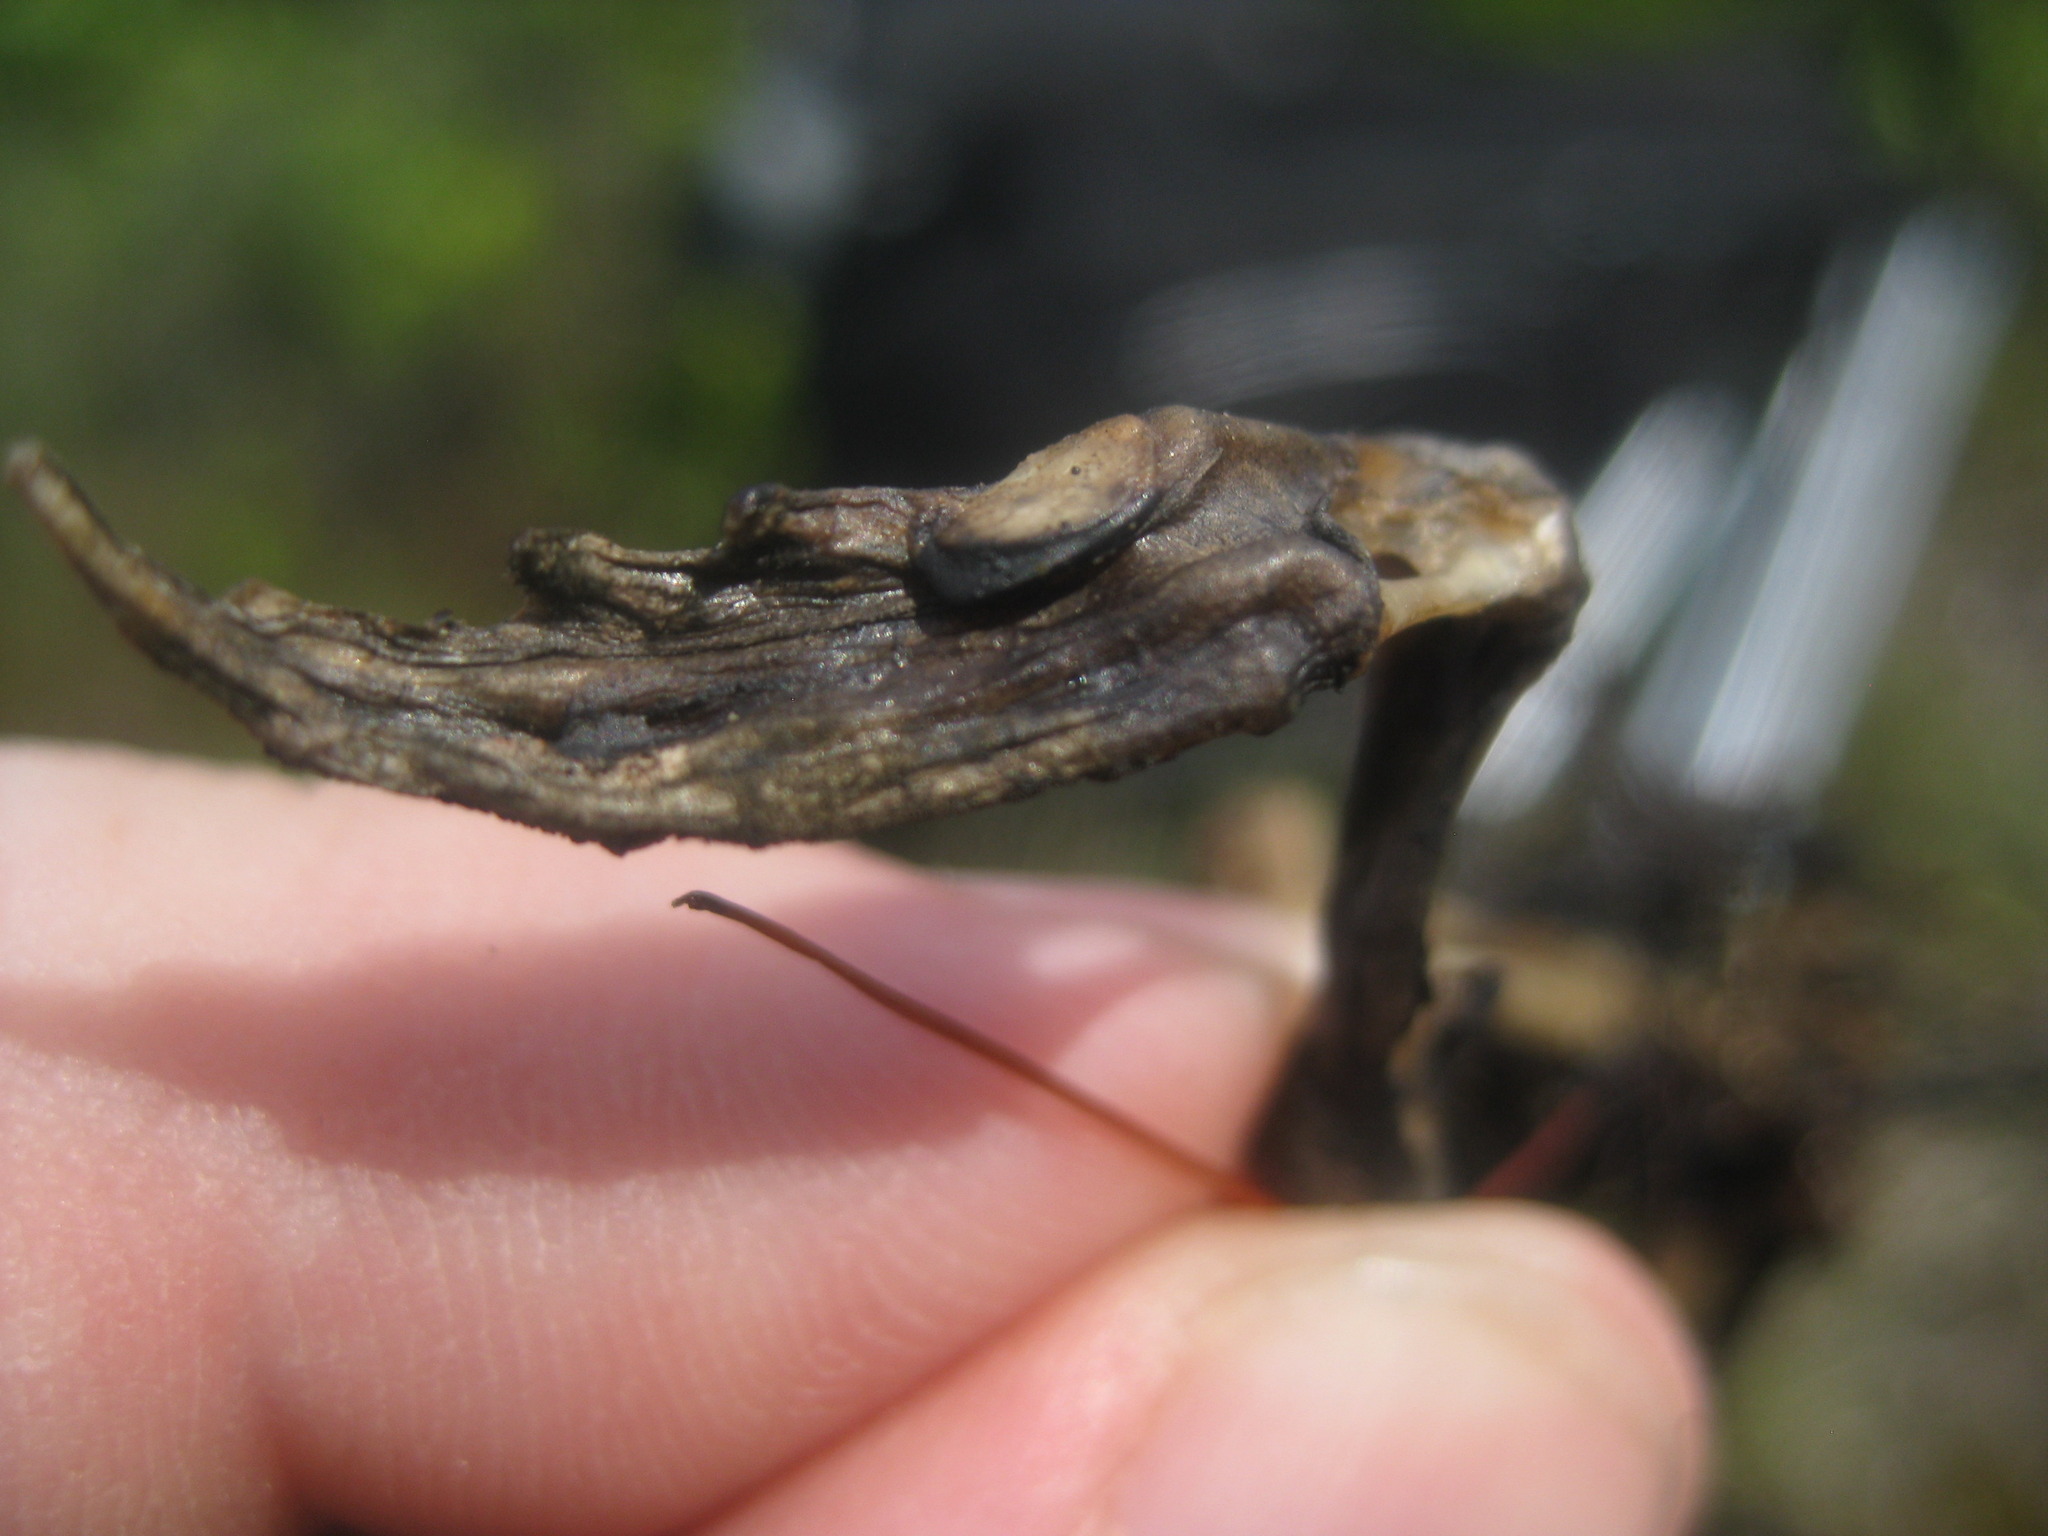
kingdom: Animalia
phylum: Chordata
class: Amphibia
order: Anura
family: Scaphiopodidae
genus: Scaphiopus
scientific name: Scaphiopus holbrookii
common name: Eastern spadefoot toad
